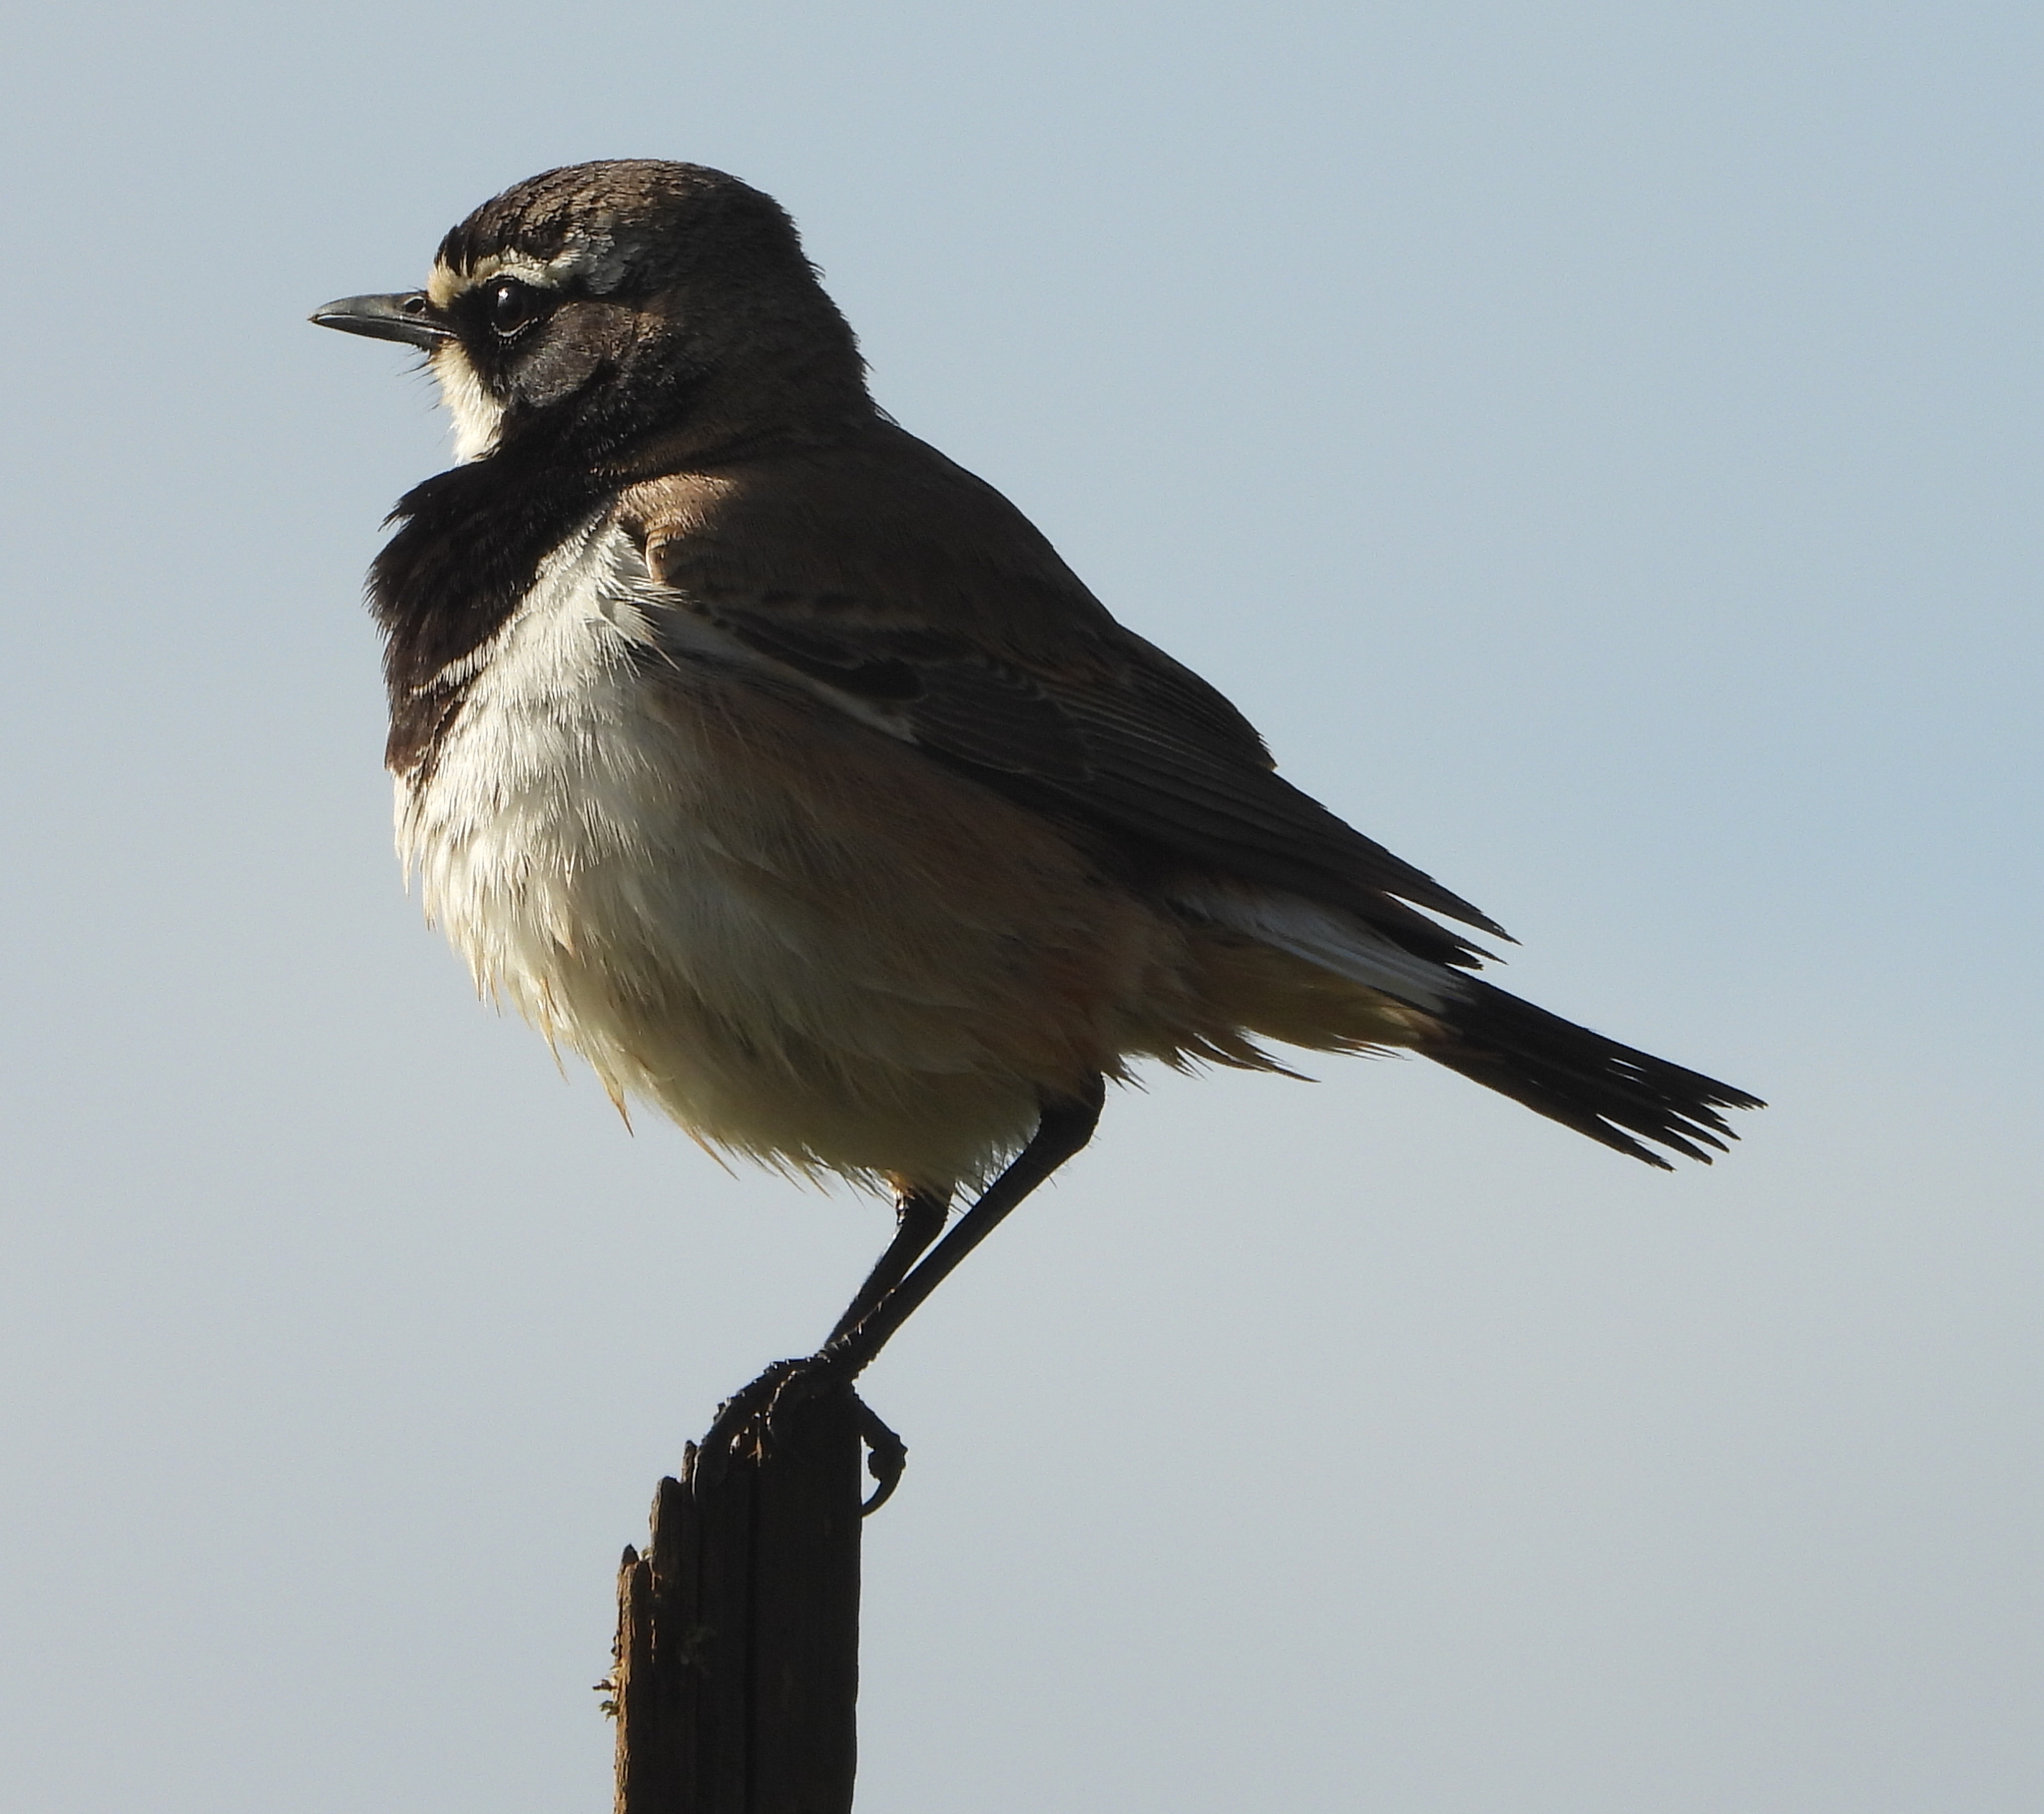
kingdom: Animalia
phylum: Chordata
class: Aves
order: Passeriformes
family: Muscicapidae
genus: Oenanthe
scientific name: Oenanthe pileata
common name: Capped wheatear
